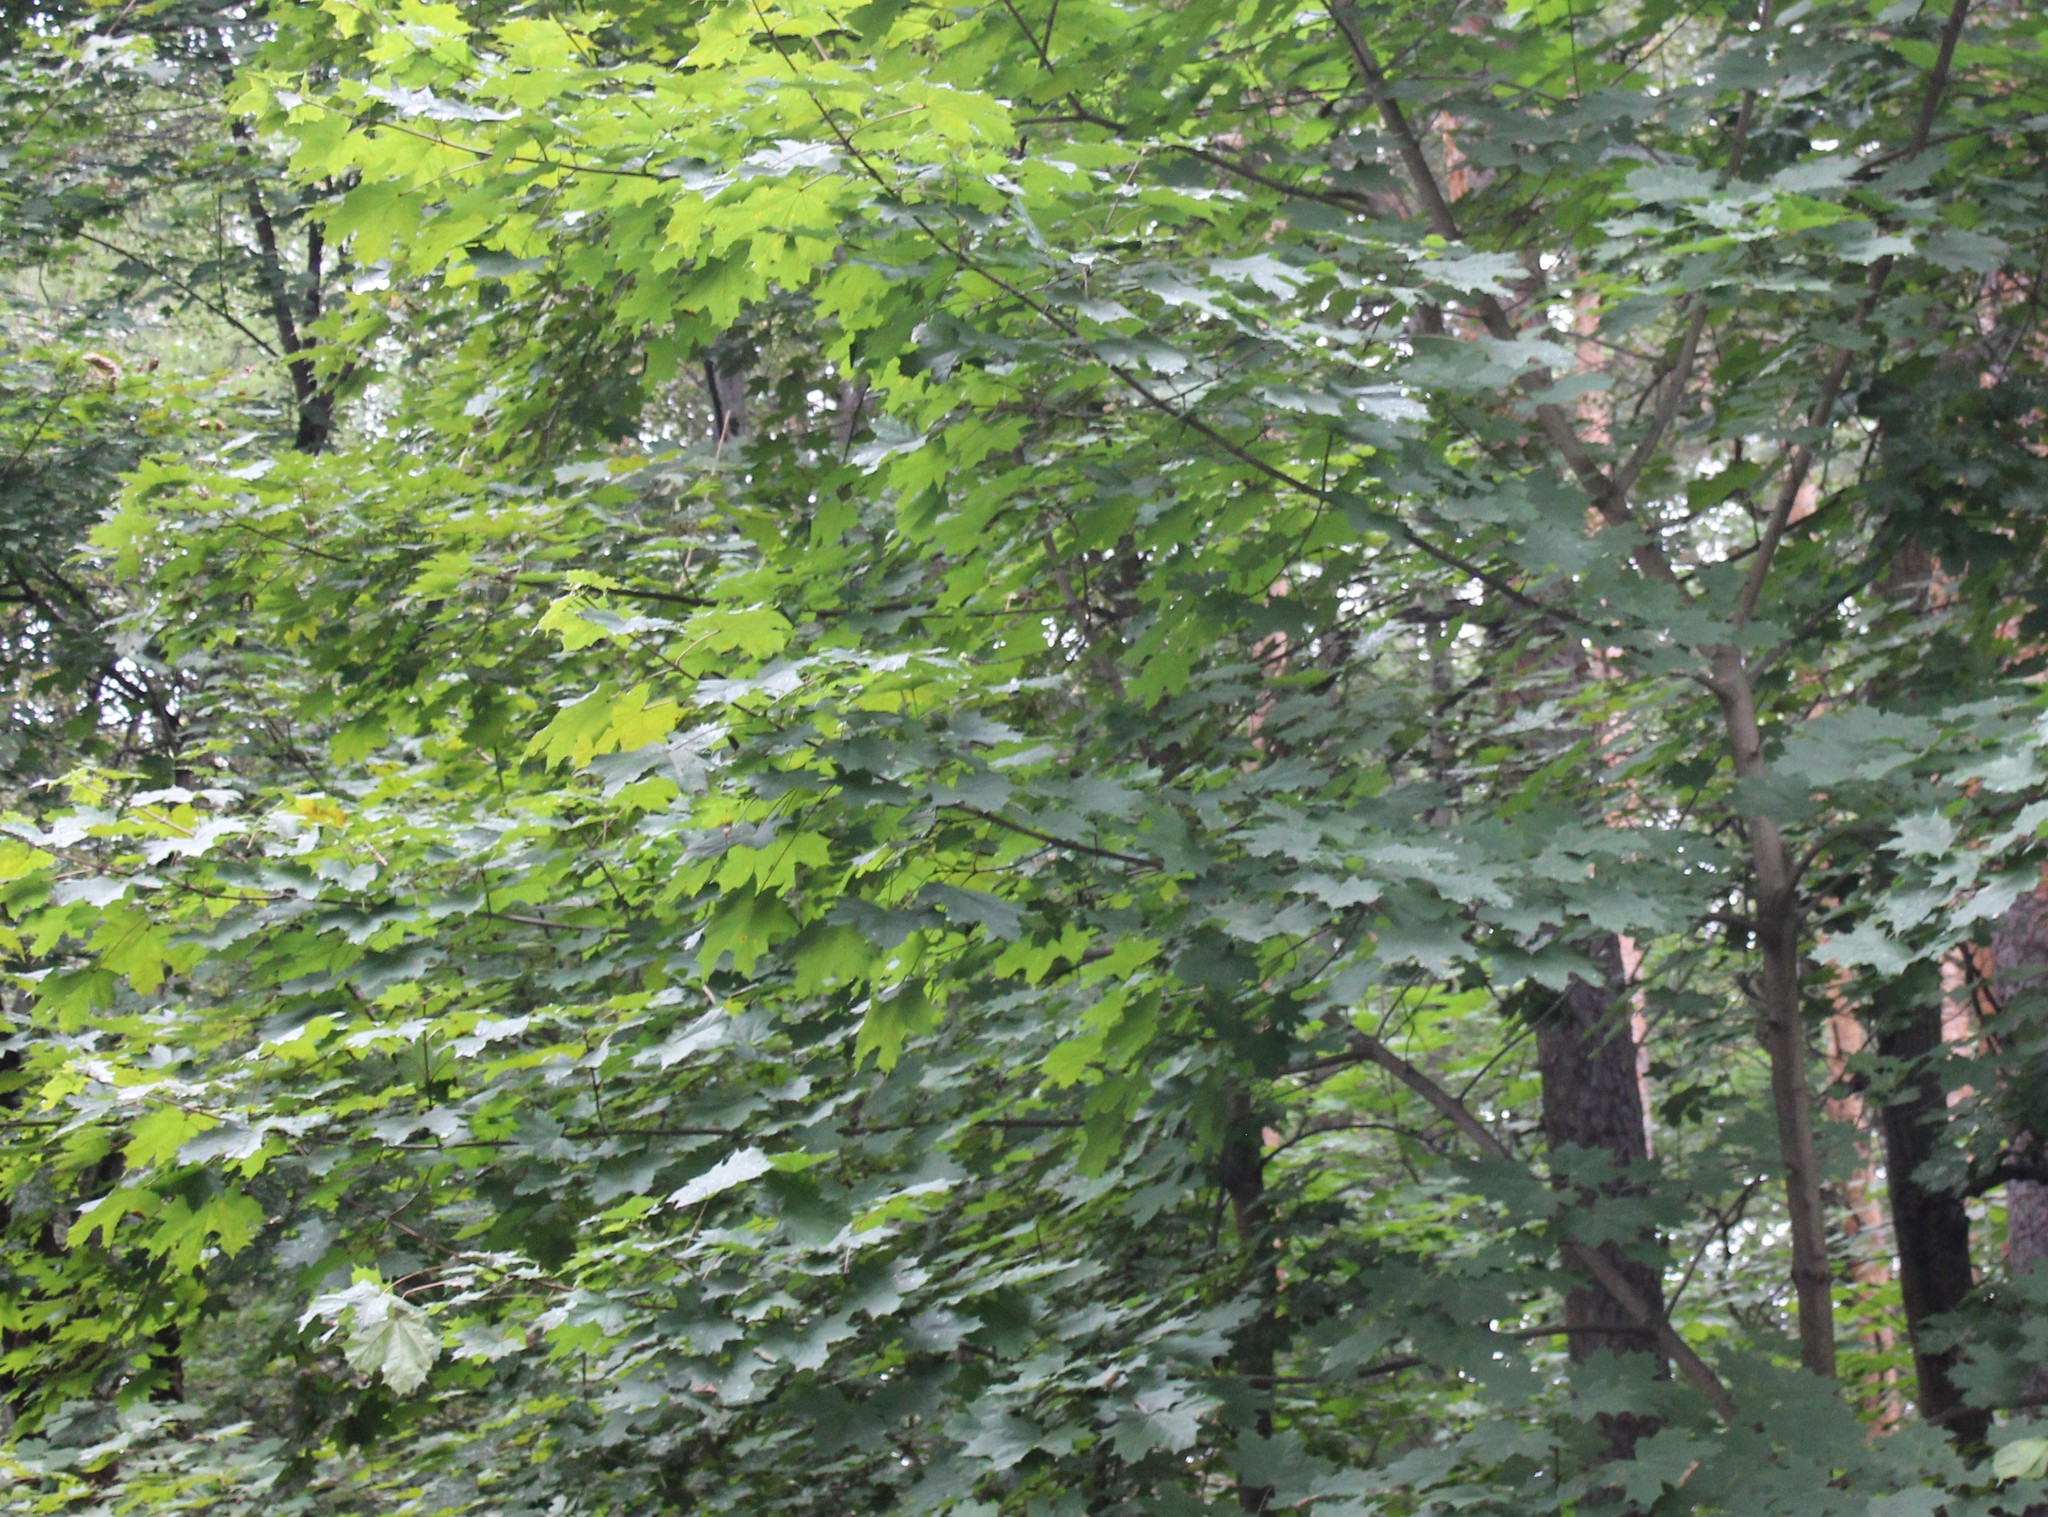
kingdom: Plantae
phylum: Tracheophyta
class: Magnoliopsida
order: Sapindales
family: Sapindaceae
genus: Acer
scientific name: Acer platanoides
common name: Norway maple
